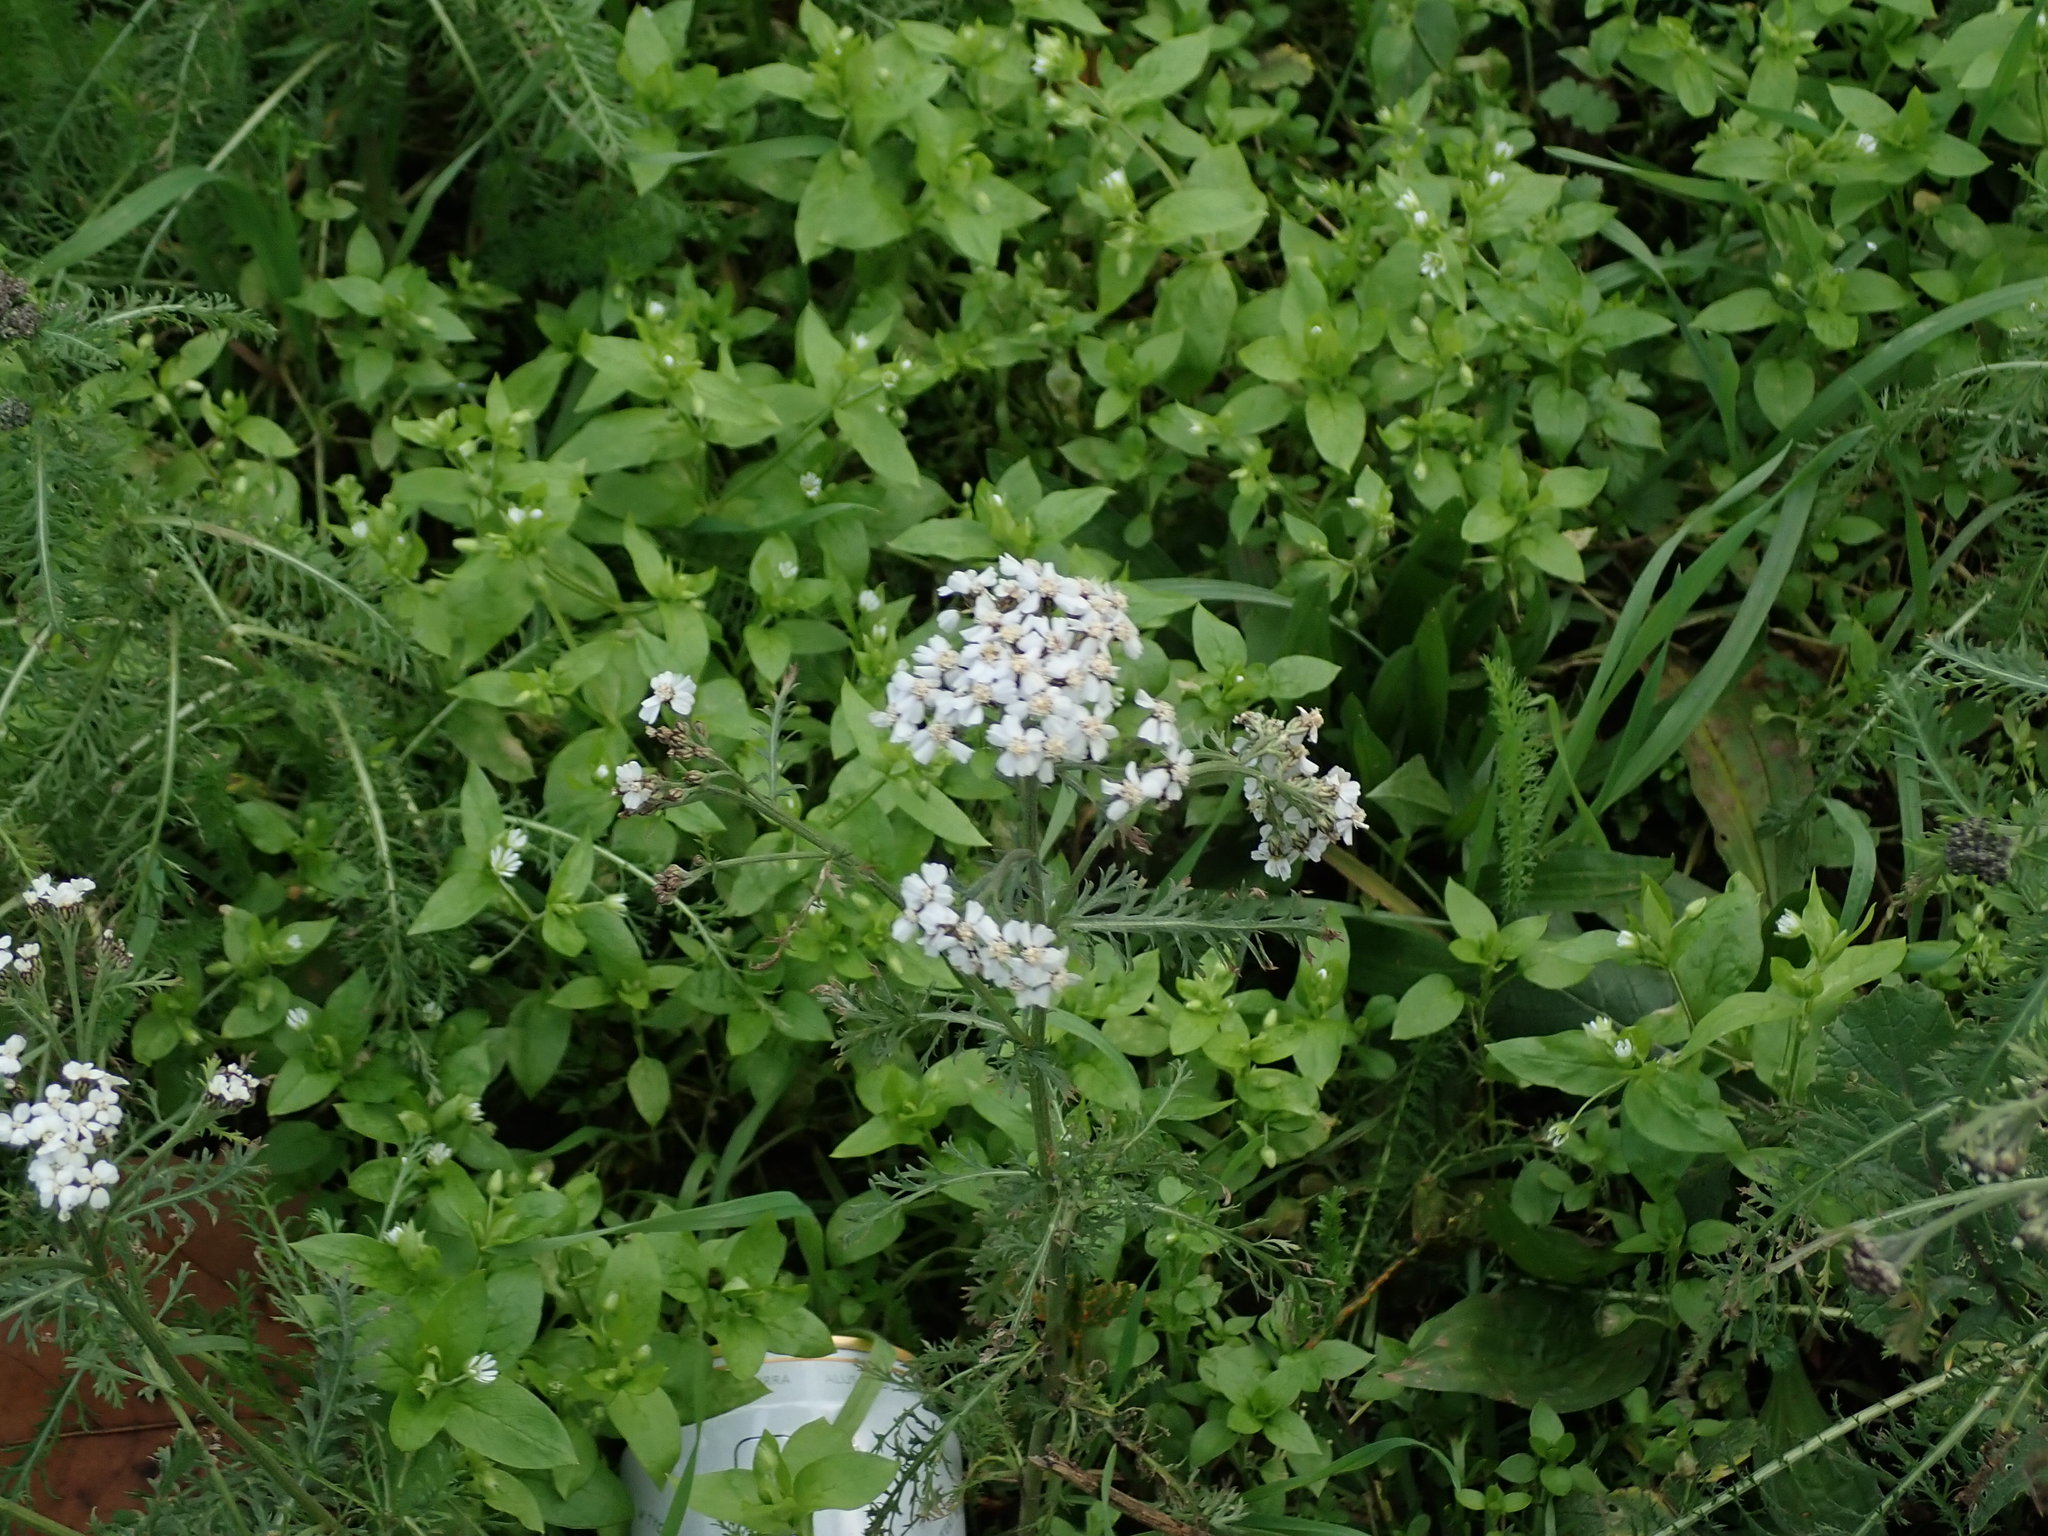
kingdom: Plantae
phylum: Tracheophyta
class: Magnoliopsida
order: Asterales
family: Asteraceae
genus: Achillea
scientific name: Achillea millefolium
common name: Yarrow
